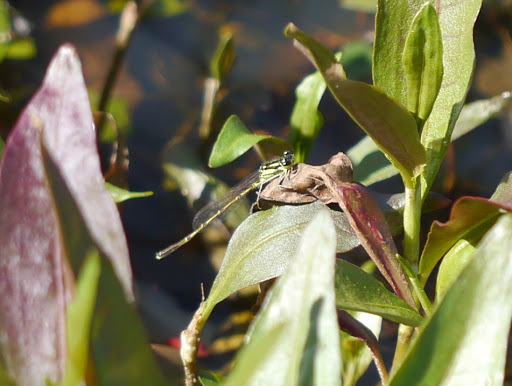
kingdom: Animalia
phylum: Arthropoda
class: Insecta
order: Odonata
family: Coenagrionidae
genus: Ischnura
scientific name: Ischnura posita
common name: Fragile forktail
